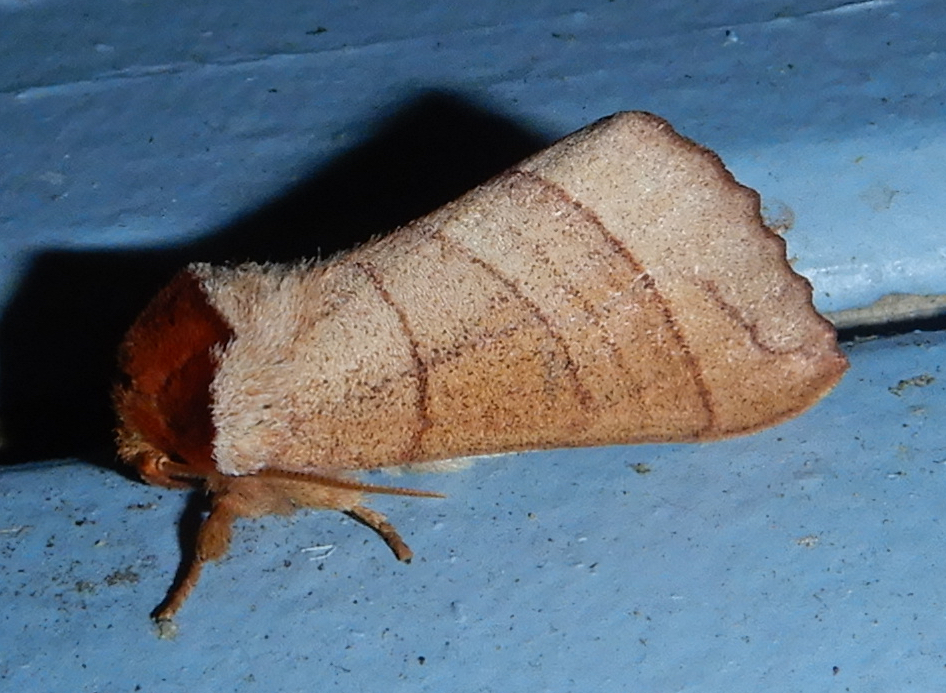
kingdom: Animalia
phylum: Arthropoda
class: Insecta
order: Lepidoptera
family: Notodontidae
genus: Datana
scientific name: Datana ministra
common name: Yellow-necked caterpillar moth
